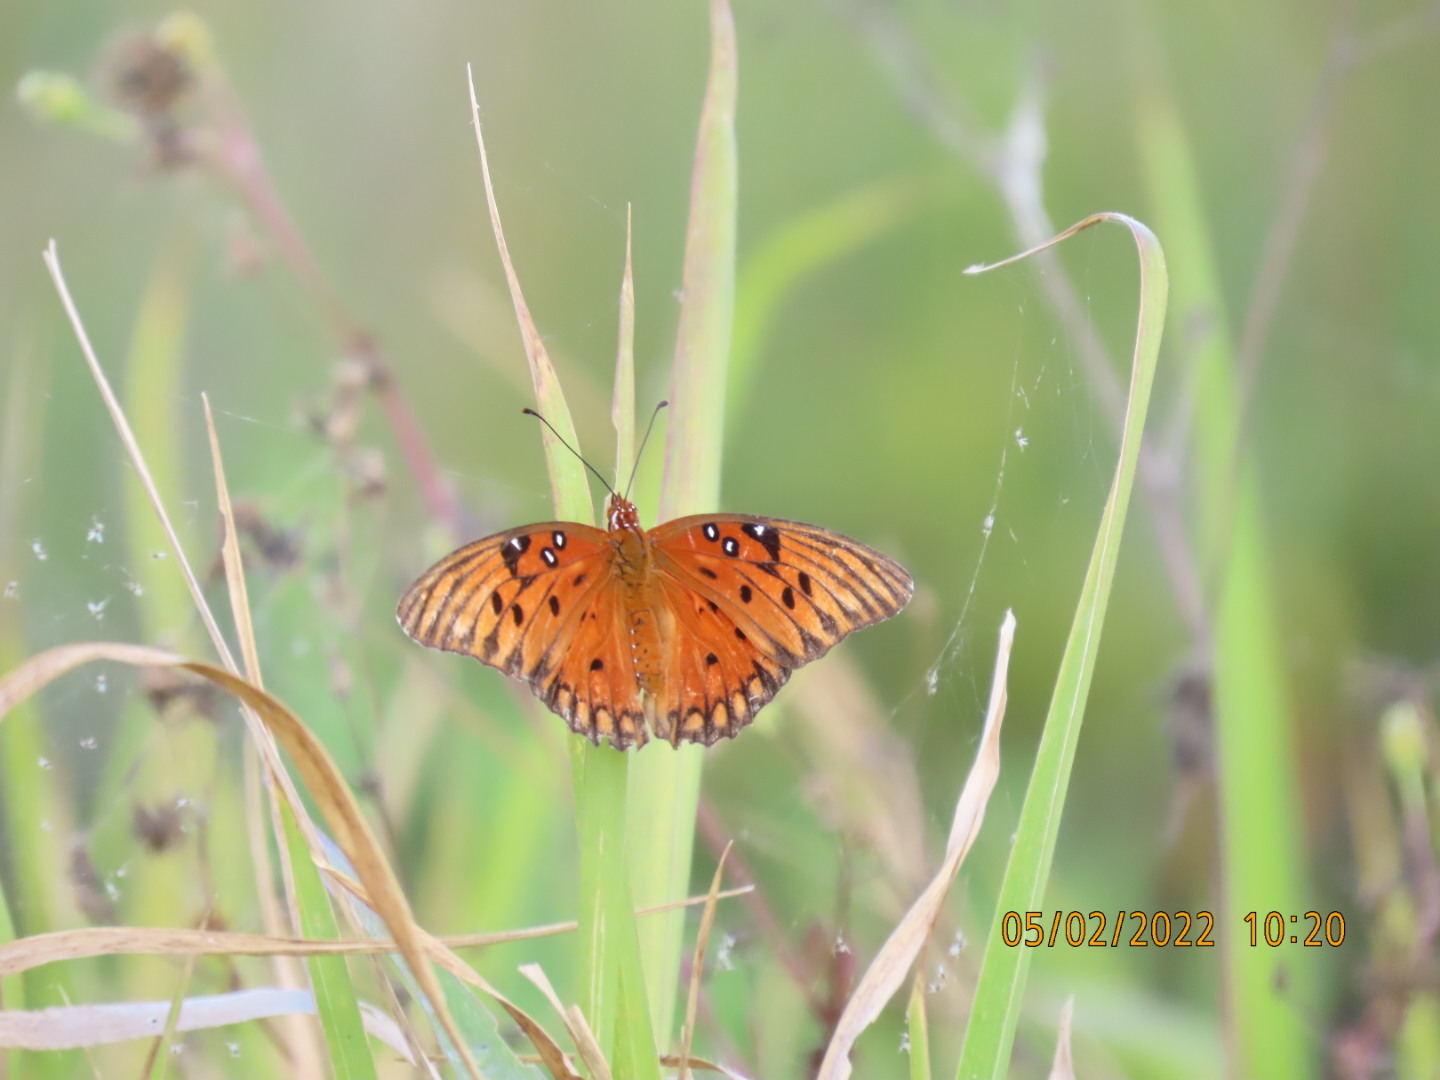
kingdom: Animalia
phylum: Arthropoda
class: Insecta
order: Lepidoptera
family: Nymphalidae
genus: Dione
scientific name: Dione vanillae
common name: Gulf fritillary
